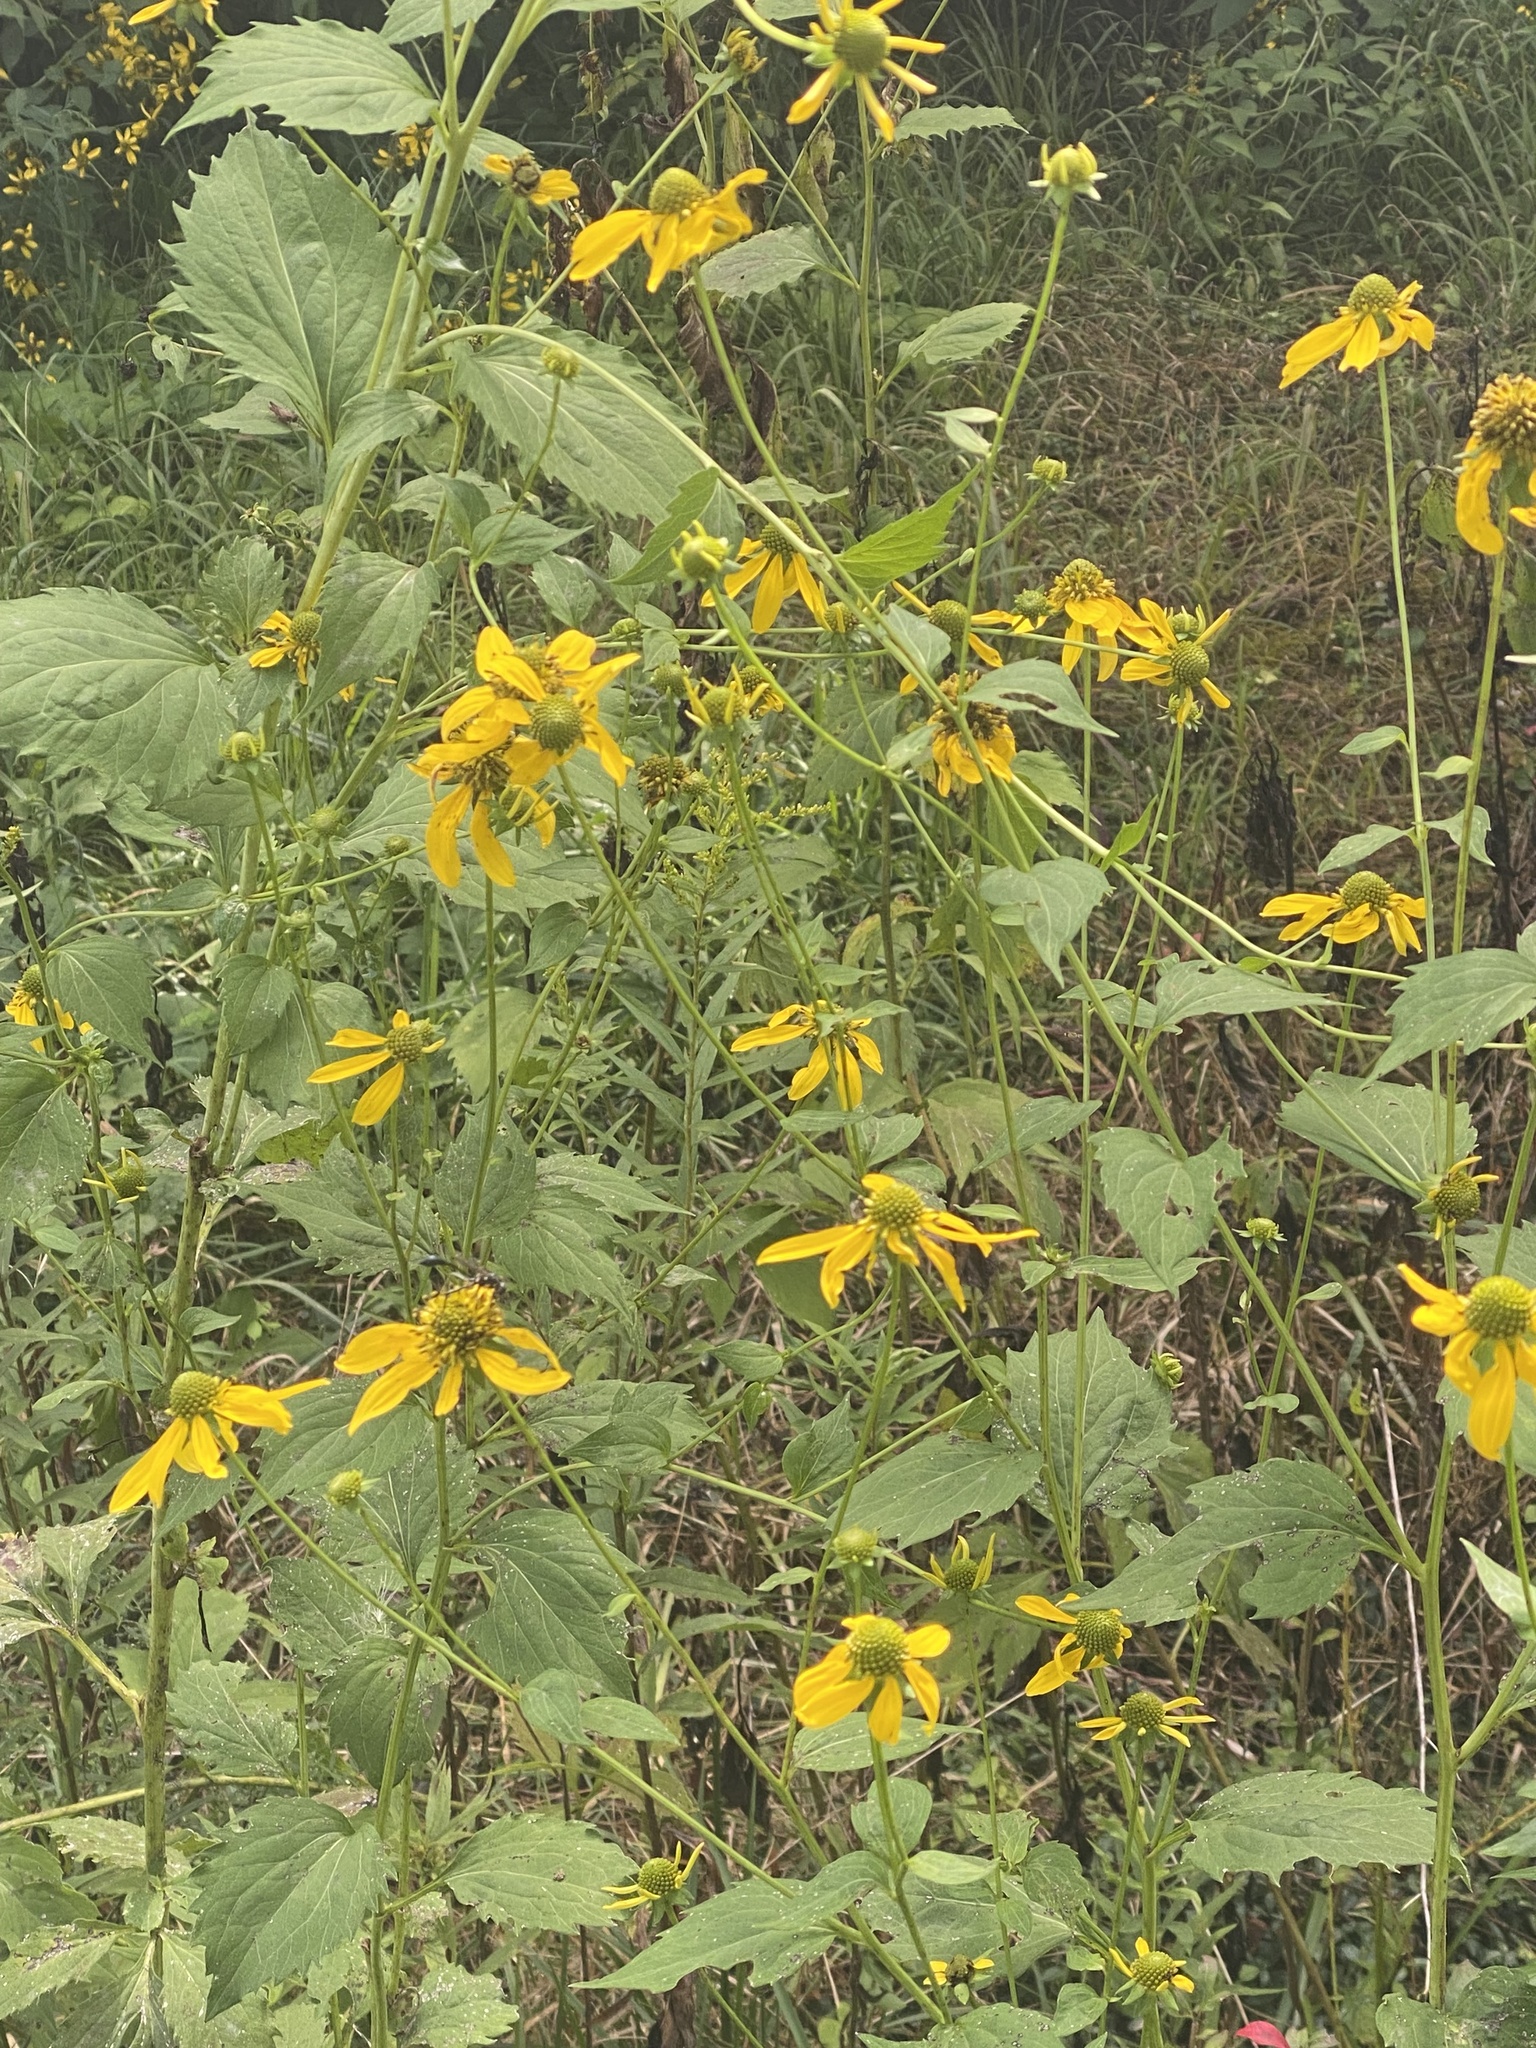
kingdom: Plantae
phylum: Tracheophyta
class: Magnoliopsida
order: Asterales
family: Asteraceae
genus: Pyrrhopappus
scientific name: Pyrrhopappus carolinianus
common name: Carolina desert-chicory
